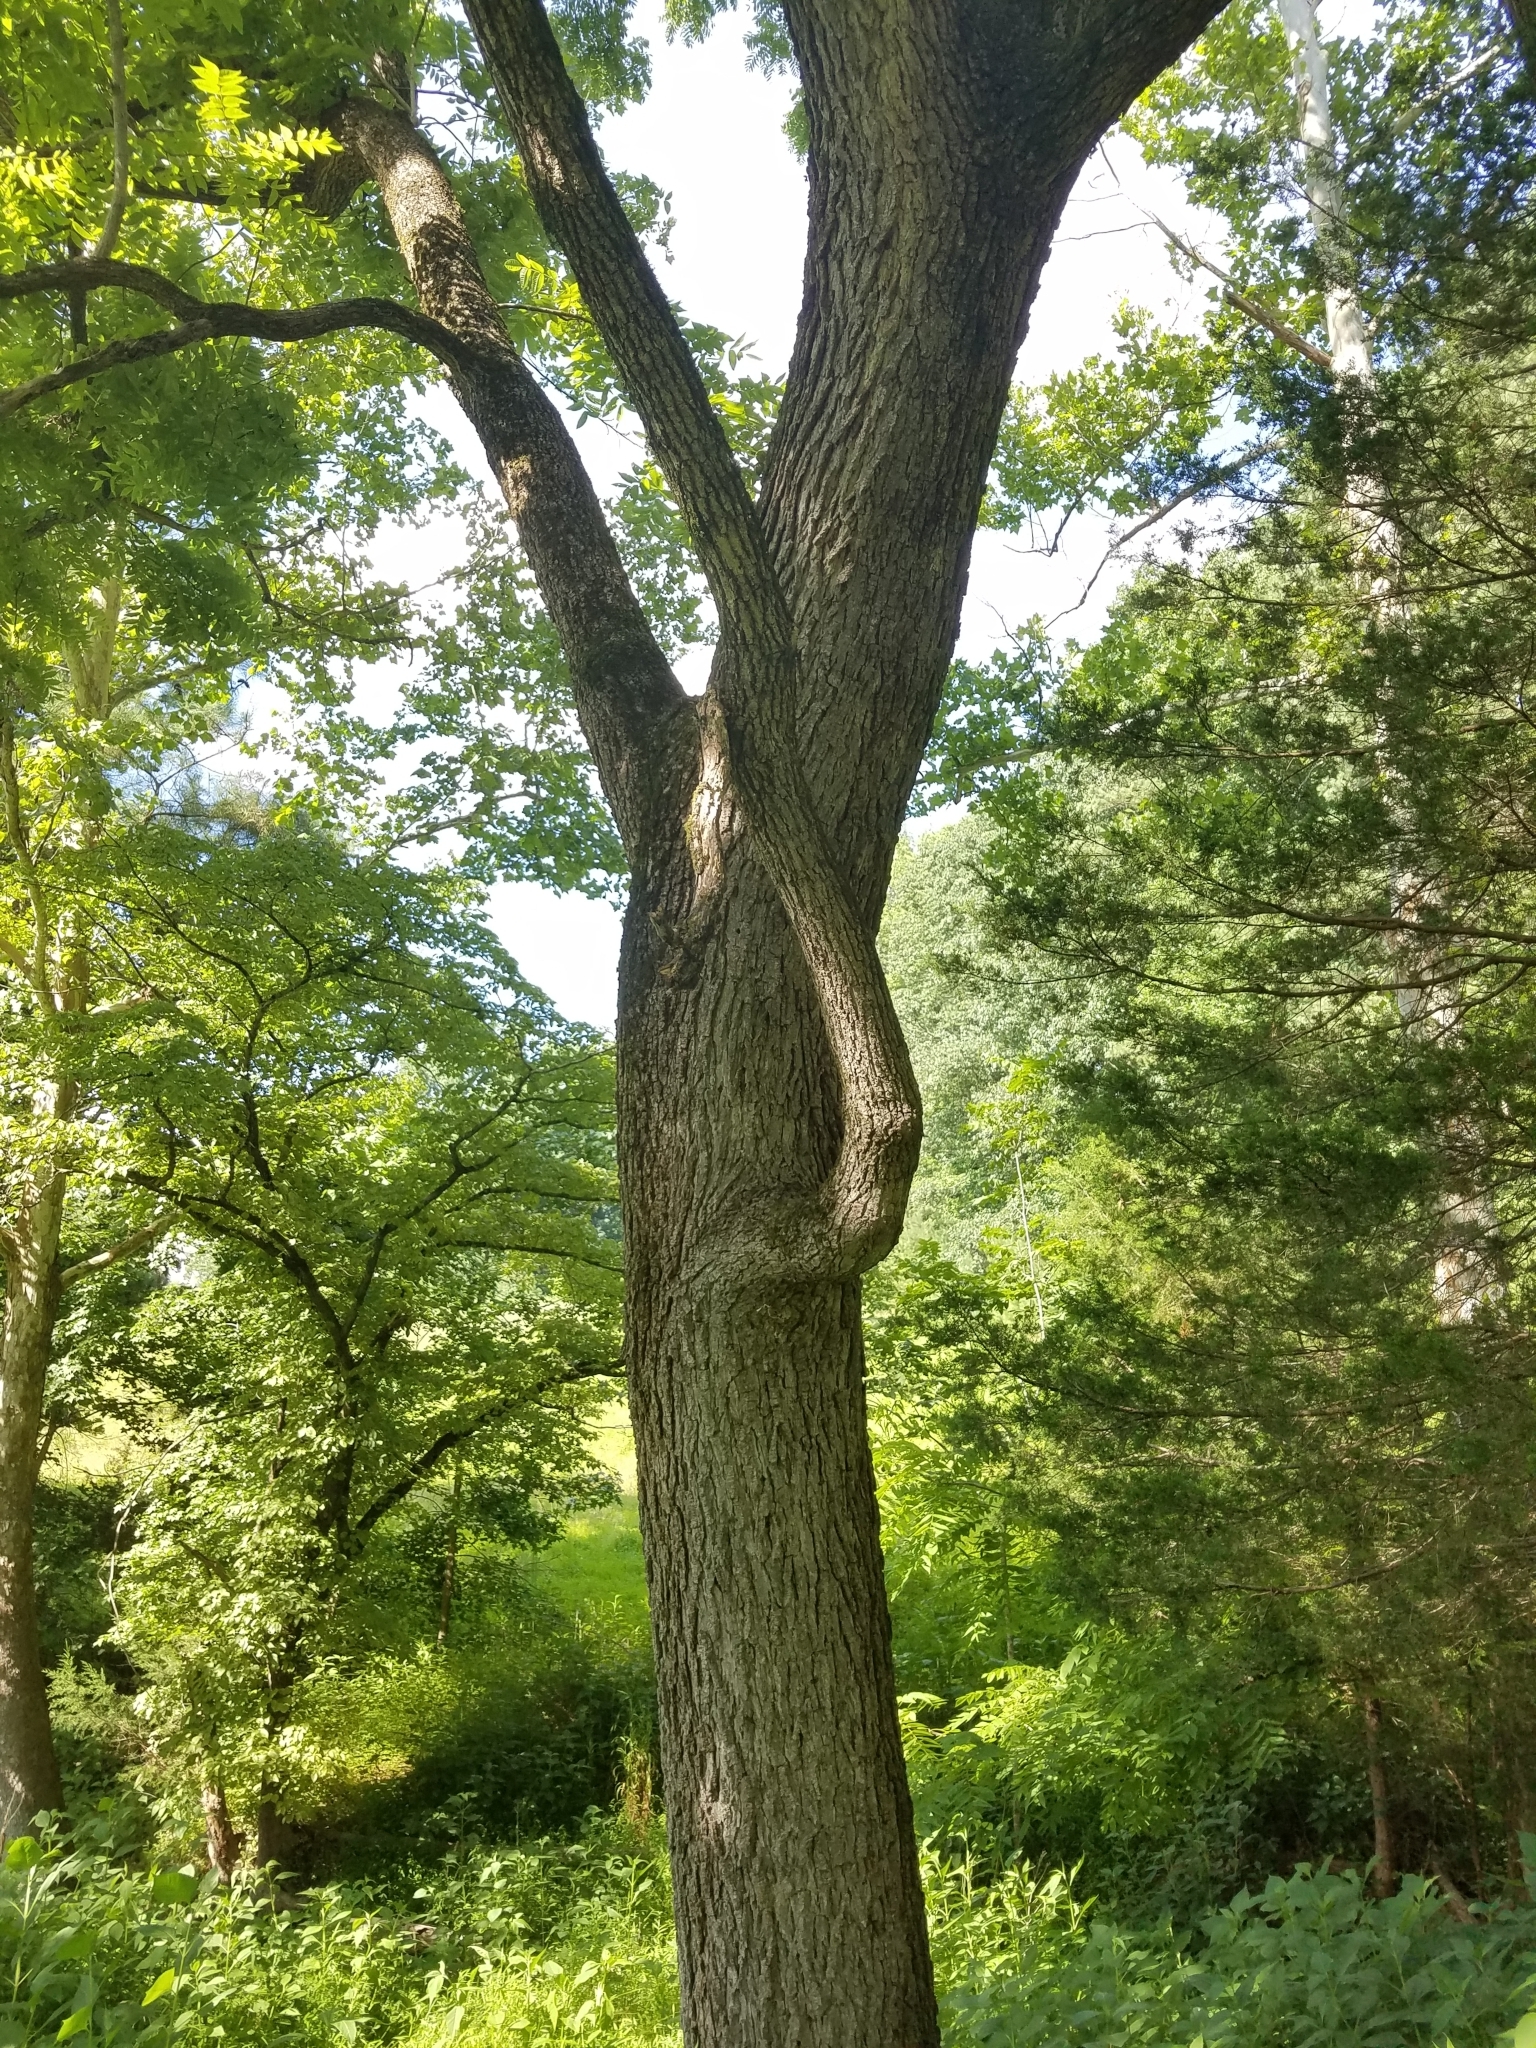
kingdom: Plantae
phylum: Tracheophyta
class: Magnoliopsida
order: Fagales
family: Juglandaceae
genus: Juglans
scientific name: Juglans nigra
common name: Black walnut
